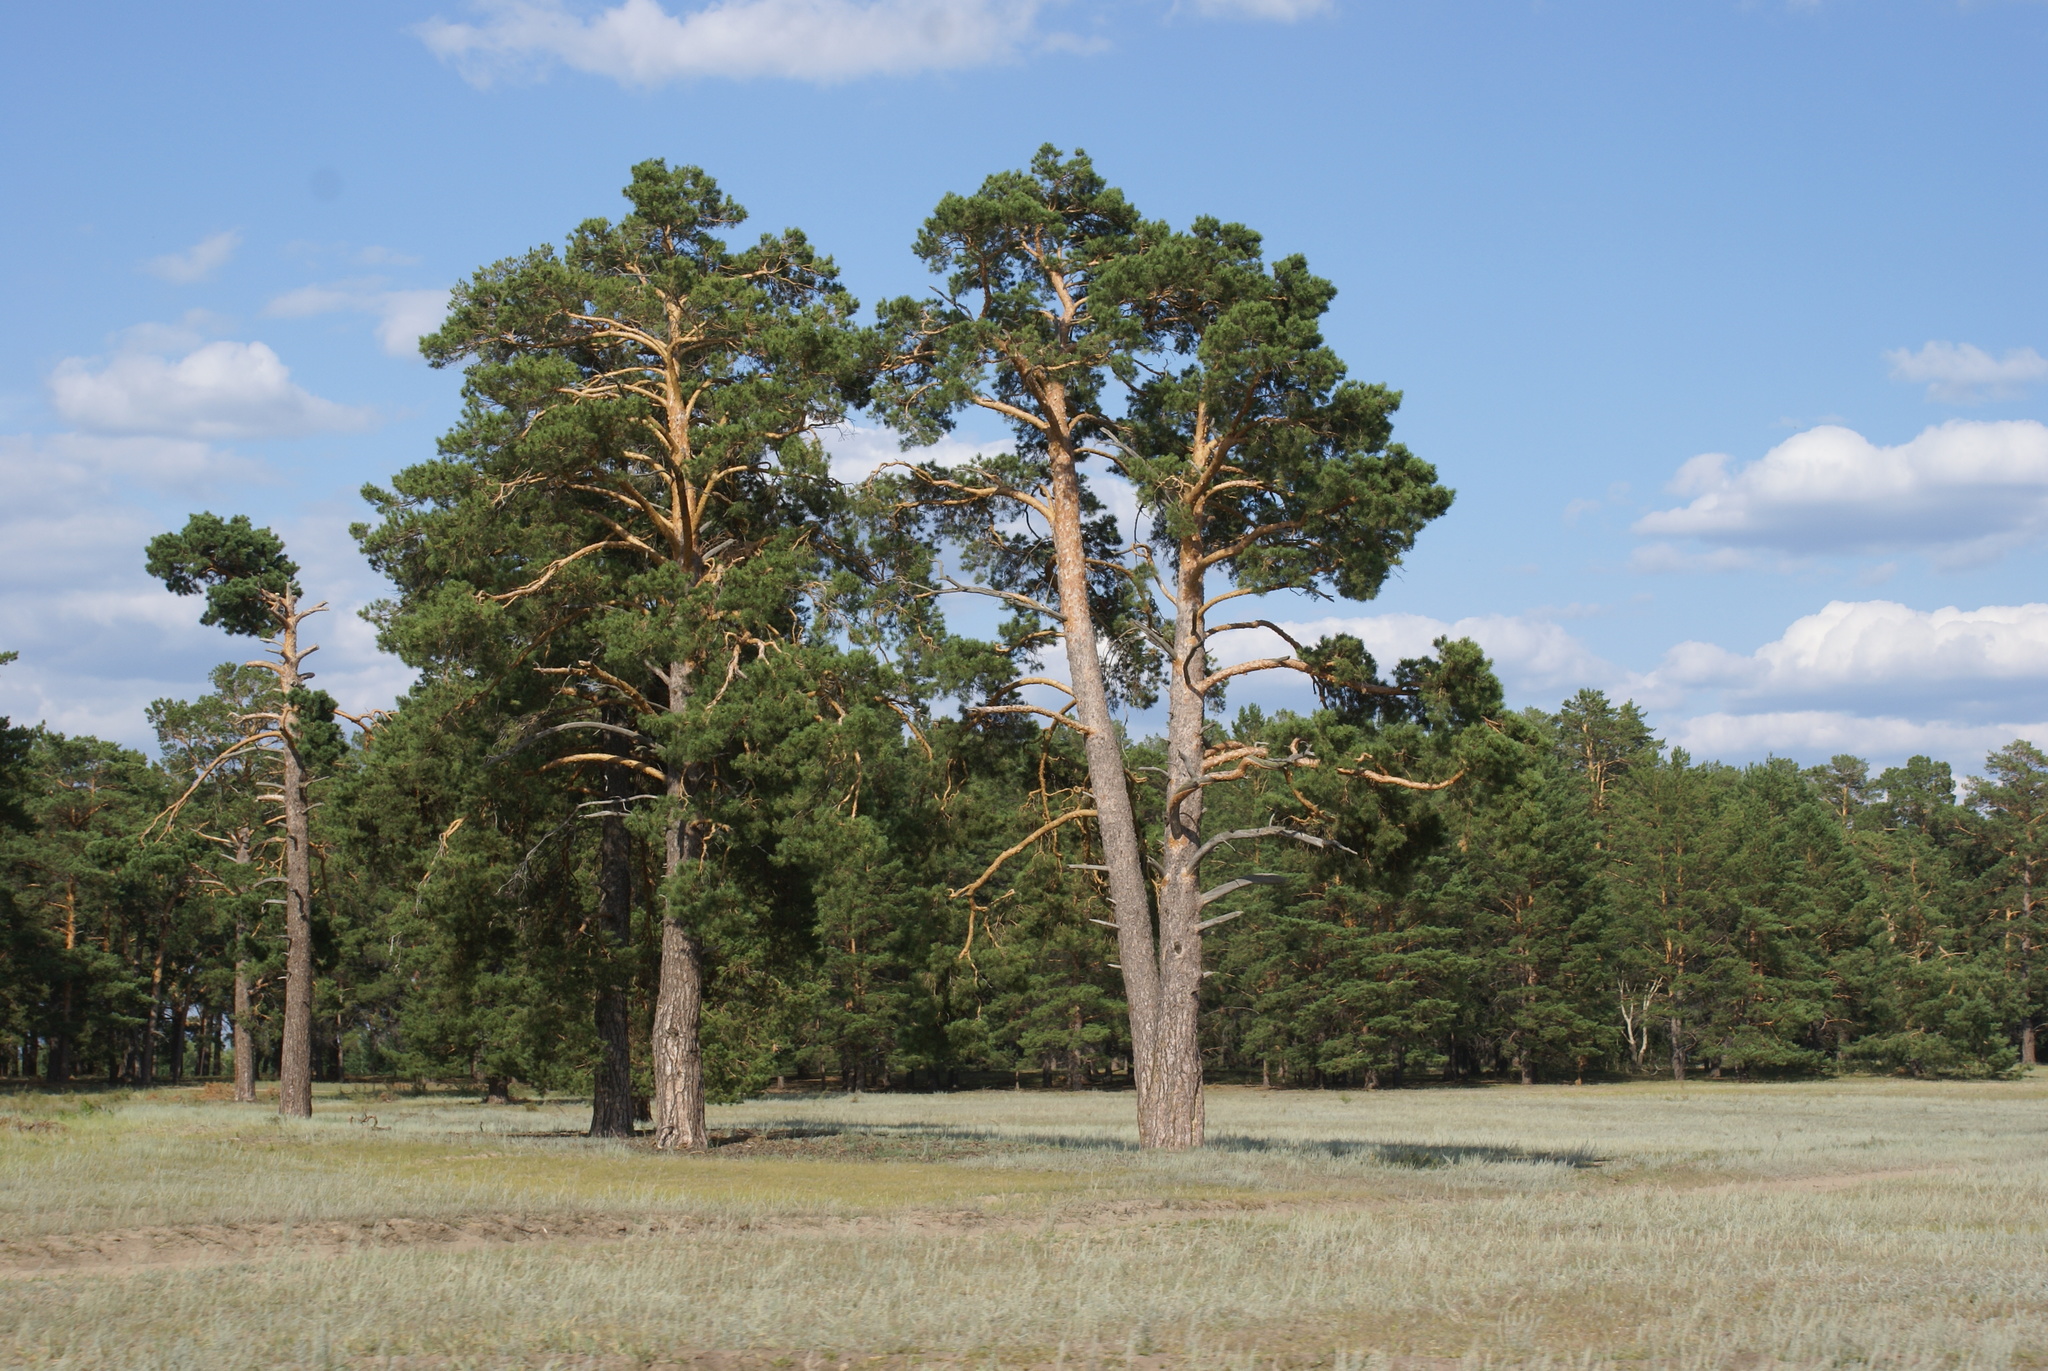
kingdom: Plantae
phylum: Tracheophyta
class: Pinopsida
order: Pinales
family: Pinaceae
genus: Pinus
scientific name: Pinus sylvestris
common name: Scots pine
